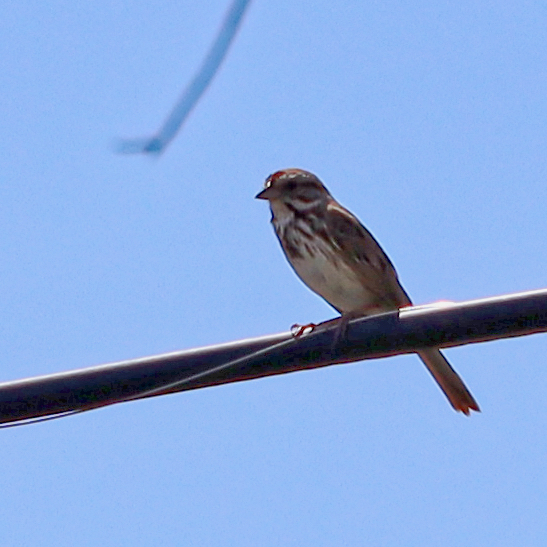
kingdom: Animalia
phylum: Chordata
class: Aves
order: Passeriformes
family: Passerellidae
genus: Melospiza
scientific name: Melospiza melodia
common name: Song sparrow
